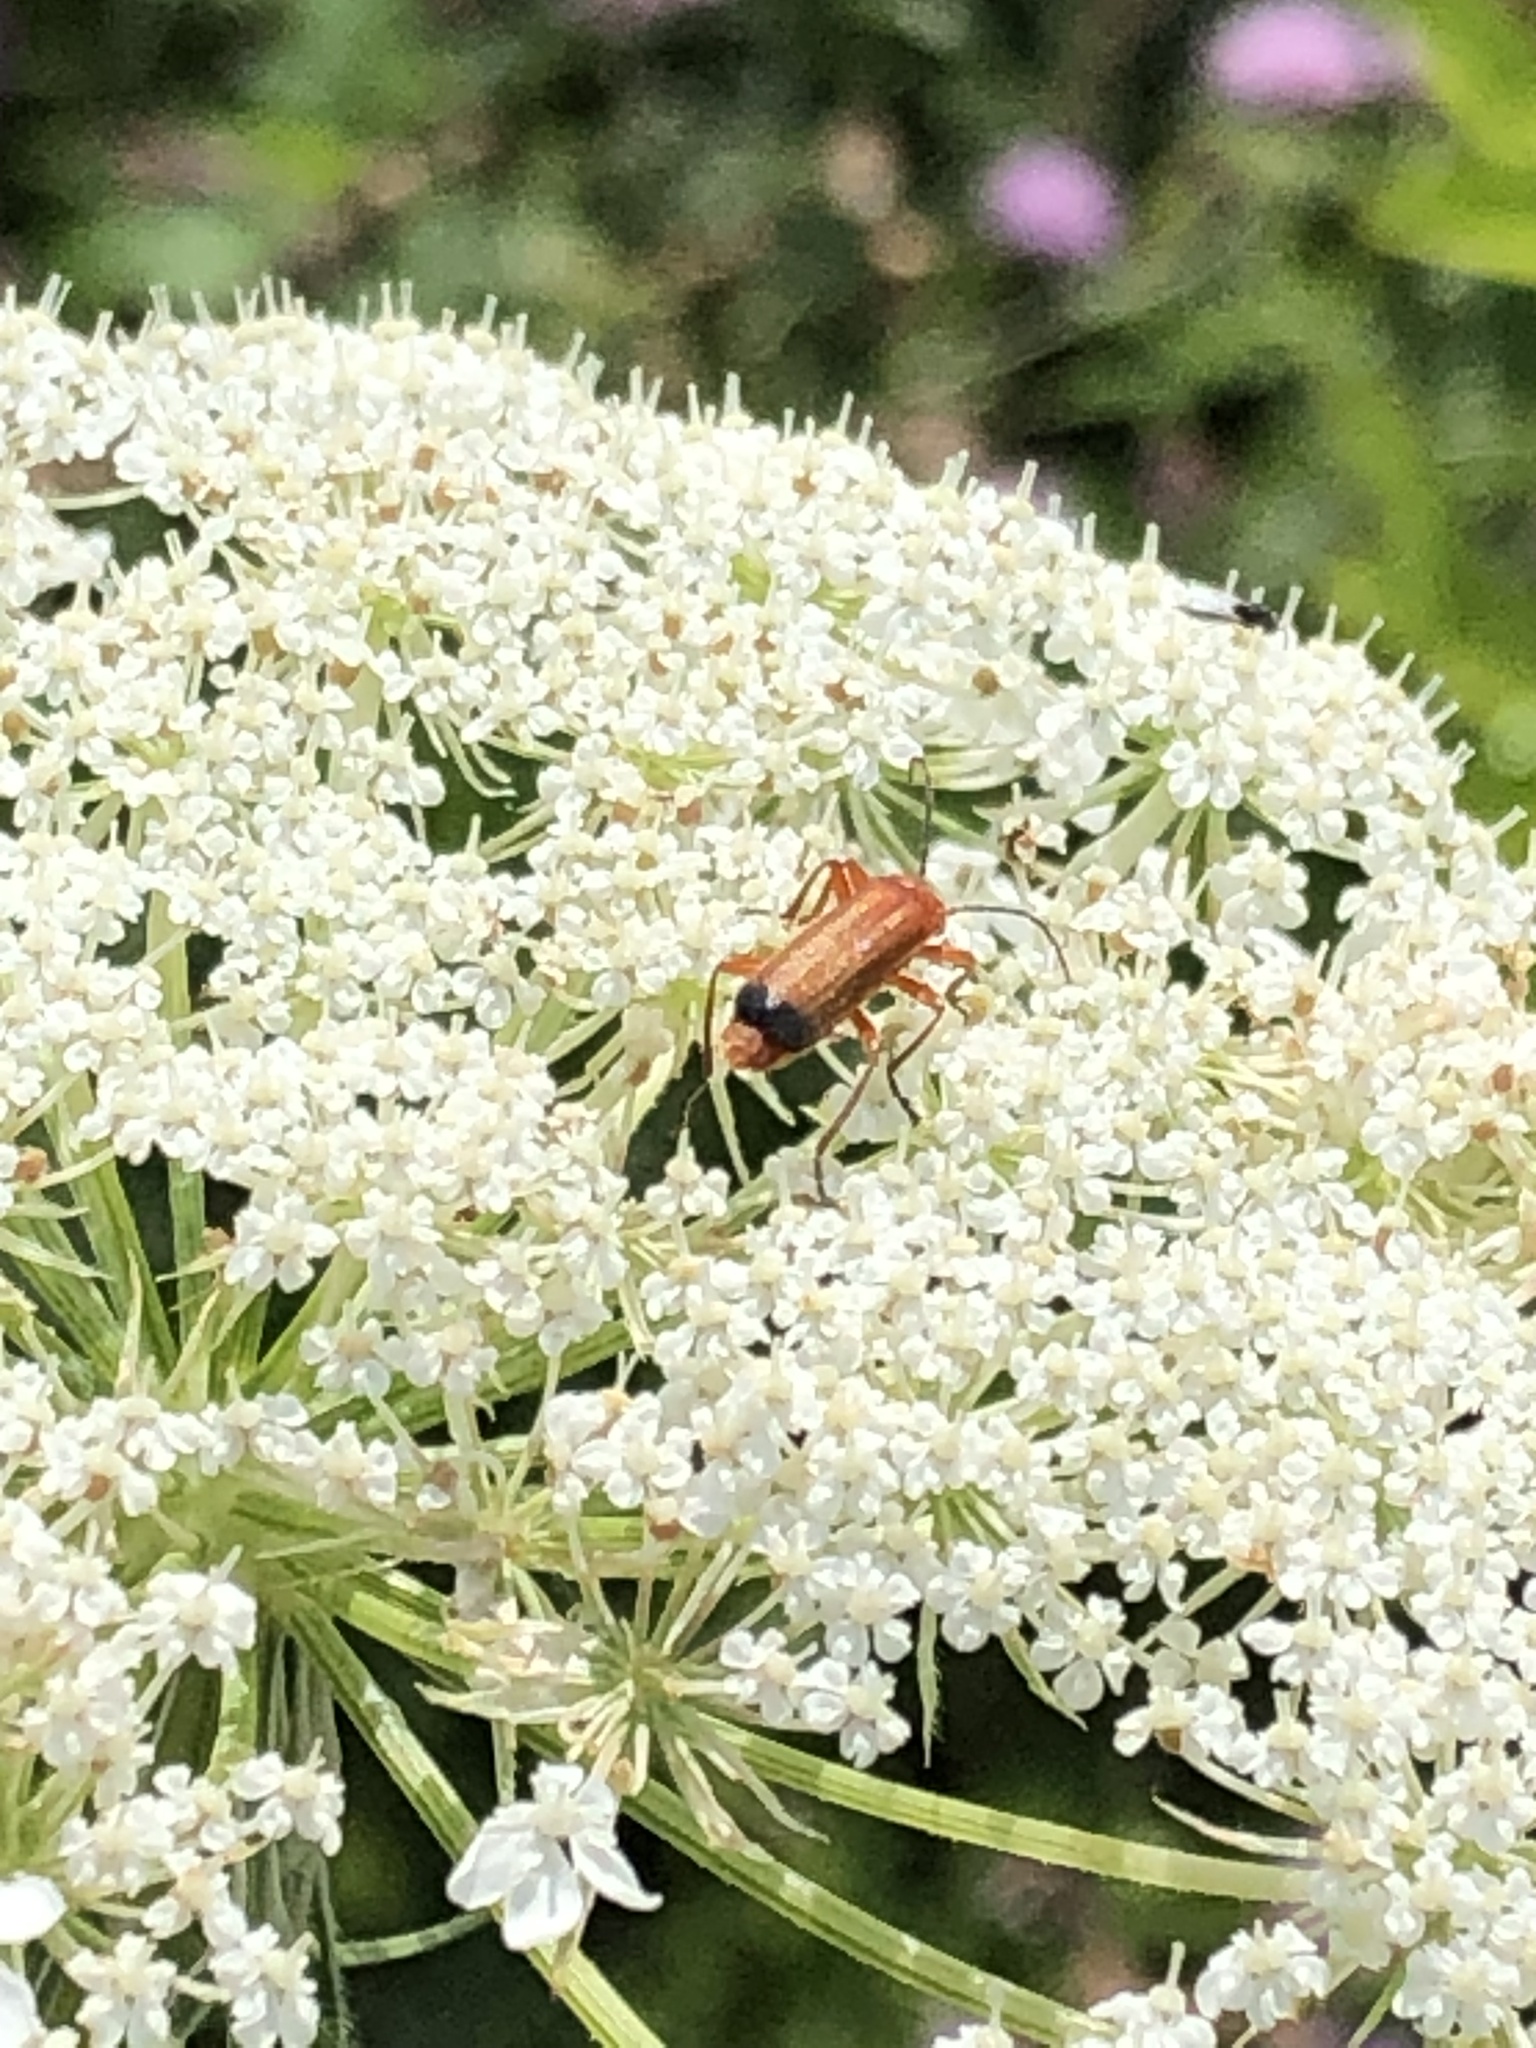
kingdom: Animalia
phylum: Arthropoda
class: Insecta
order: Coleoptera
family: Cantharidae
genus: Rhagonycha
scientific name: Rhagonycha fulva
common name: Common red soldier beetle
